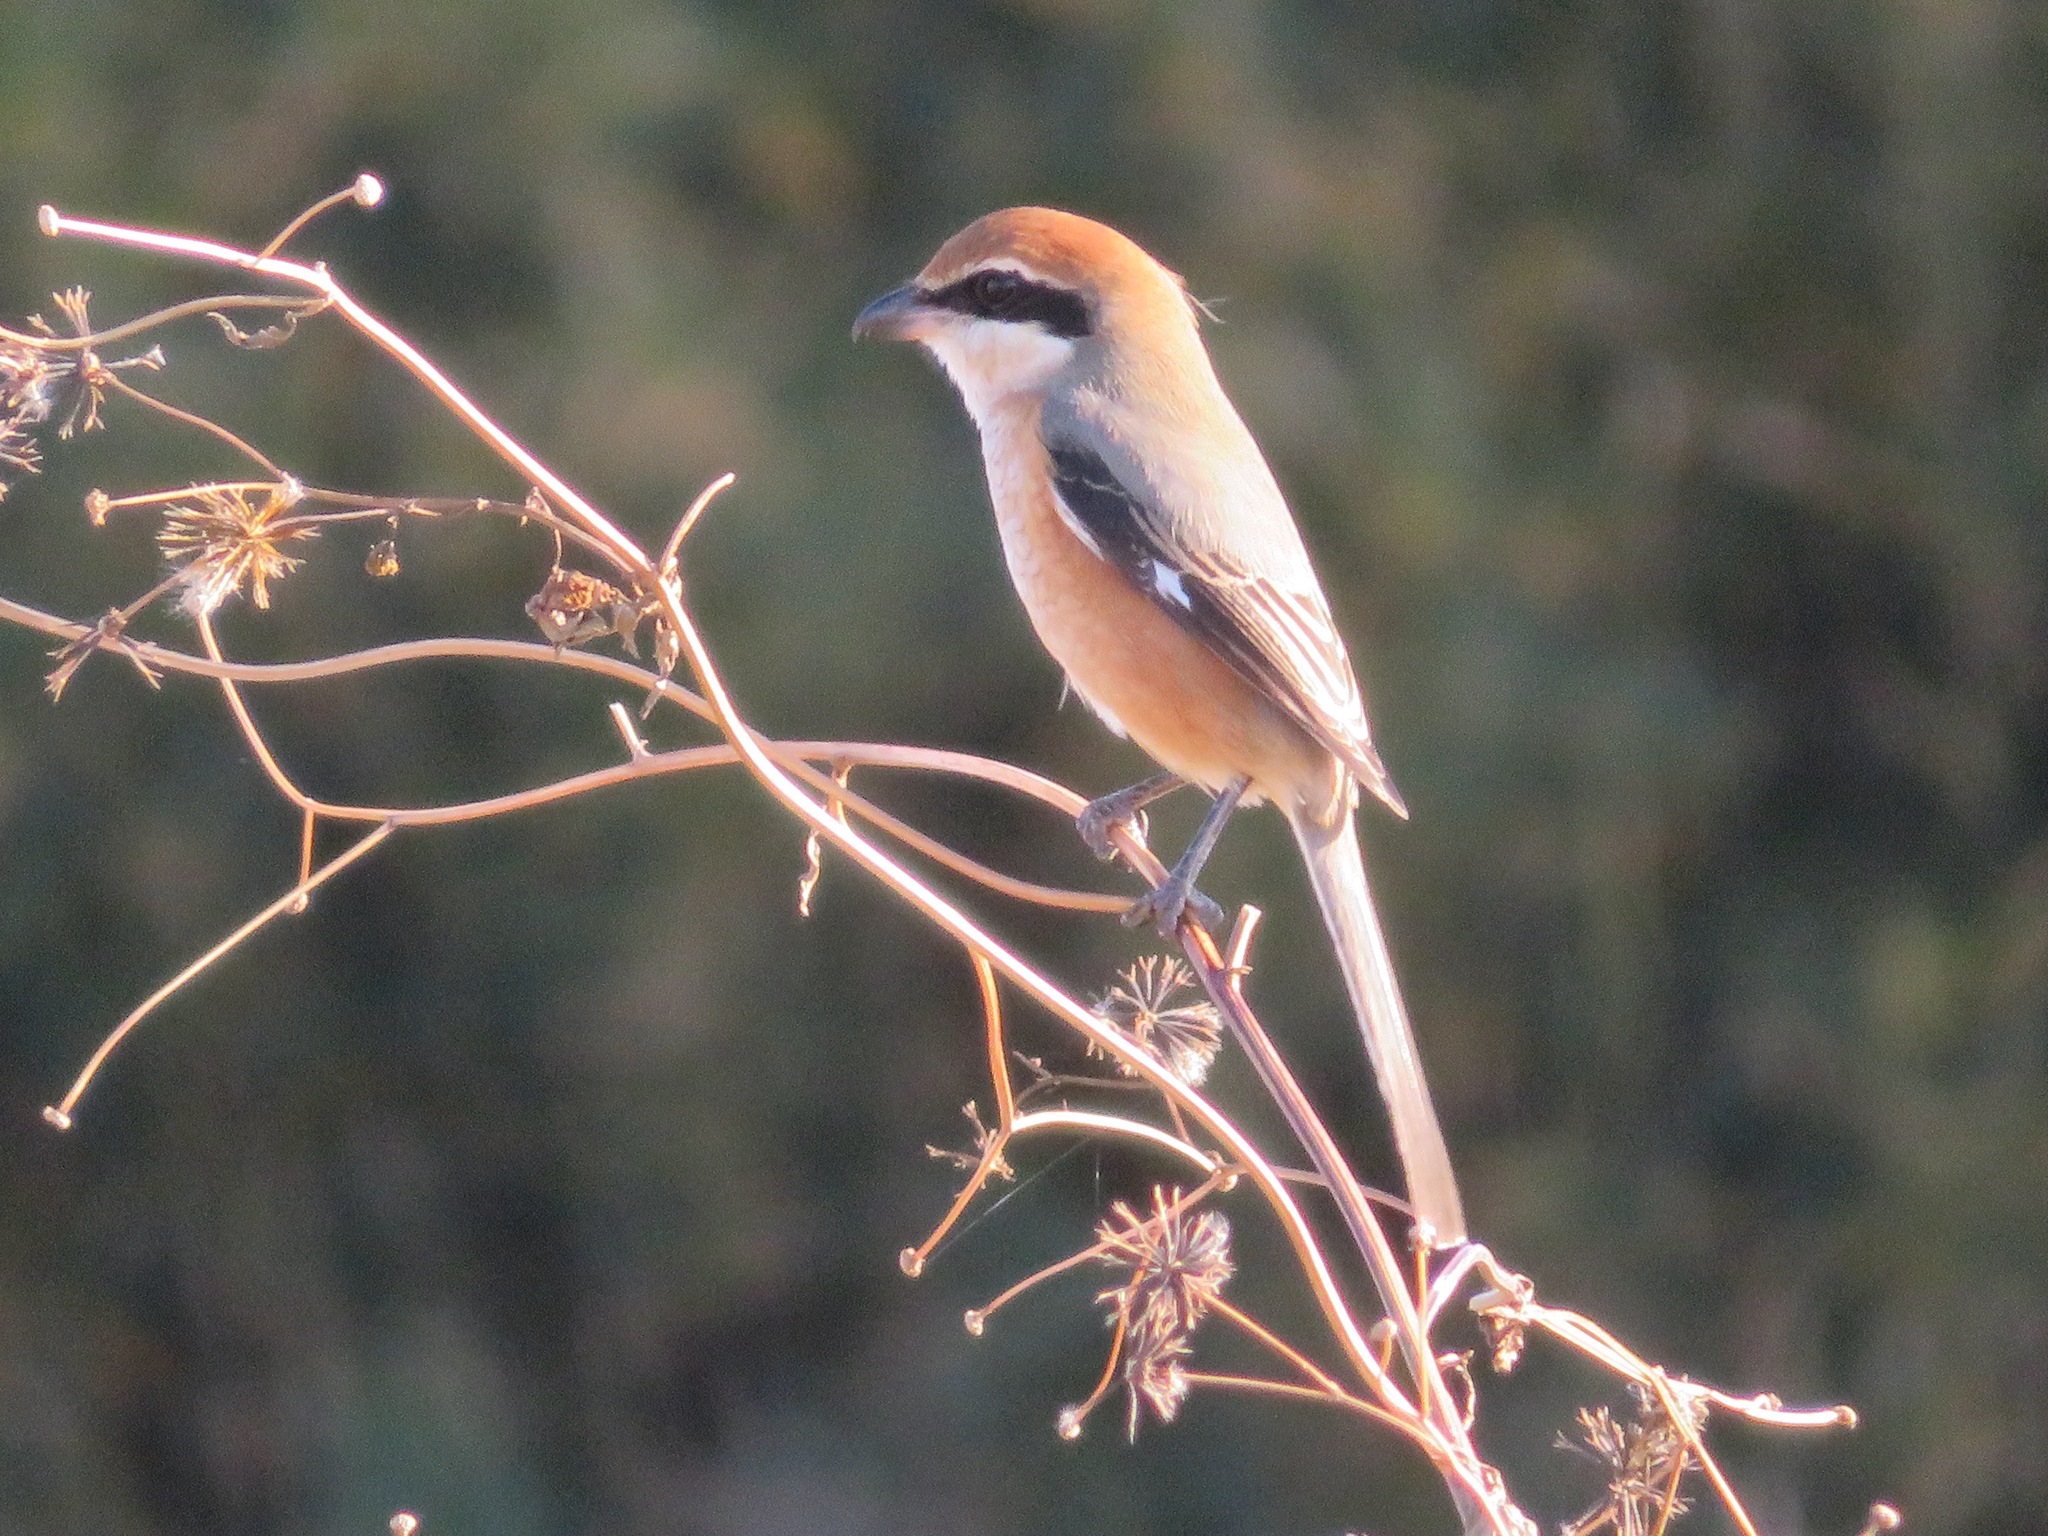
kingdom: Animalia
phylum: Chordata
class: Aves
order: Passeriformes
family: Laniidae
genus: Lanius
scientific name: Lanius bucephalus
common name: Bull-headed shrike
